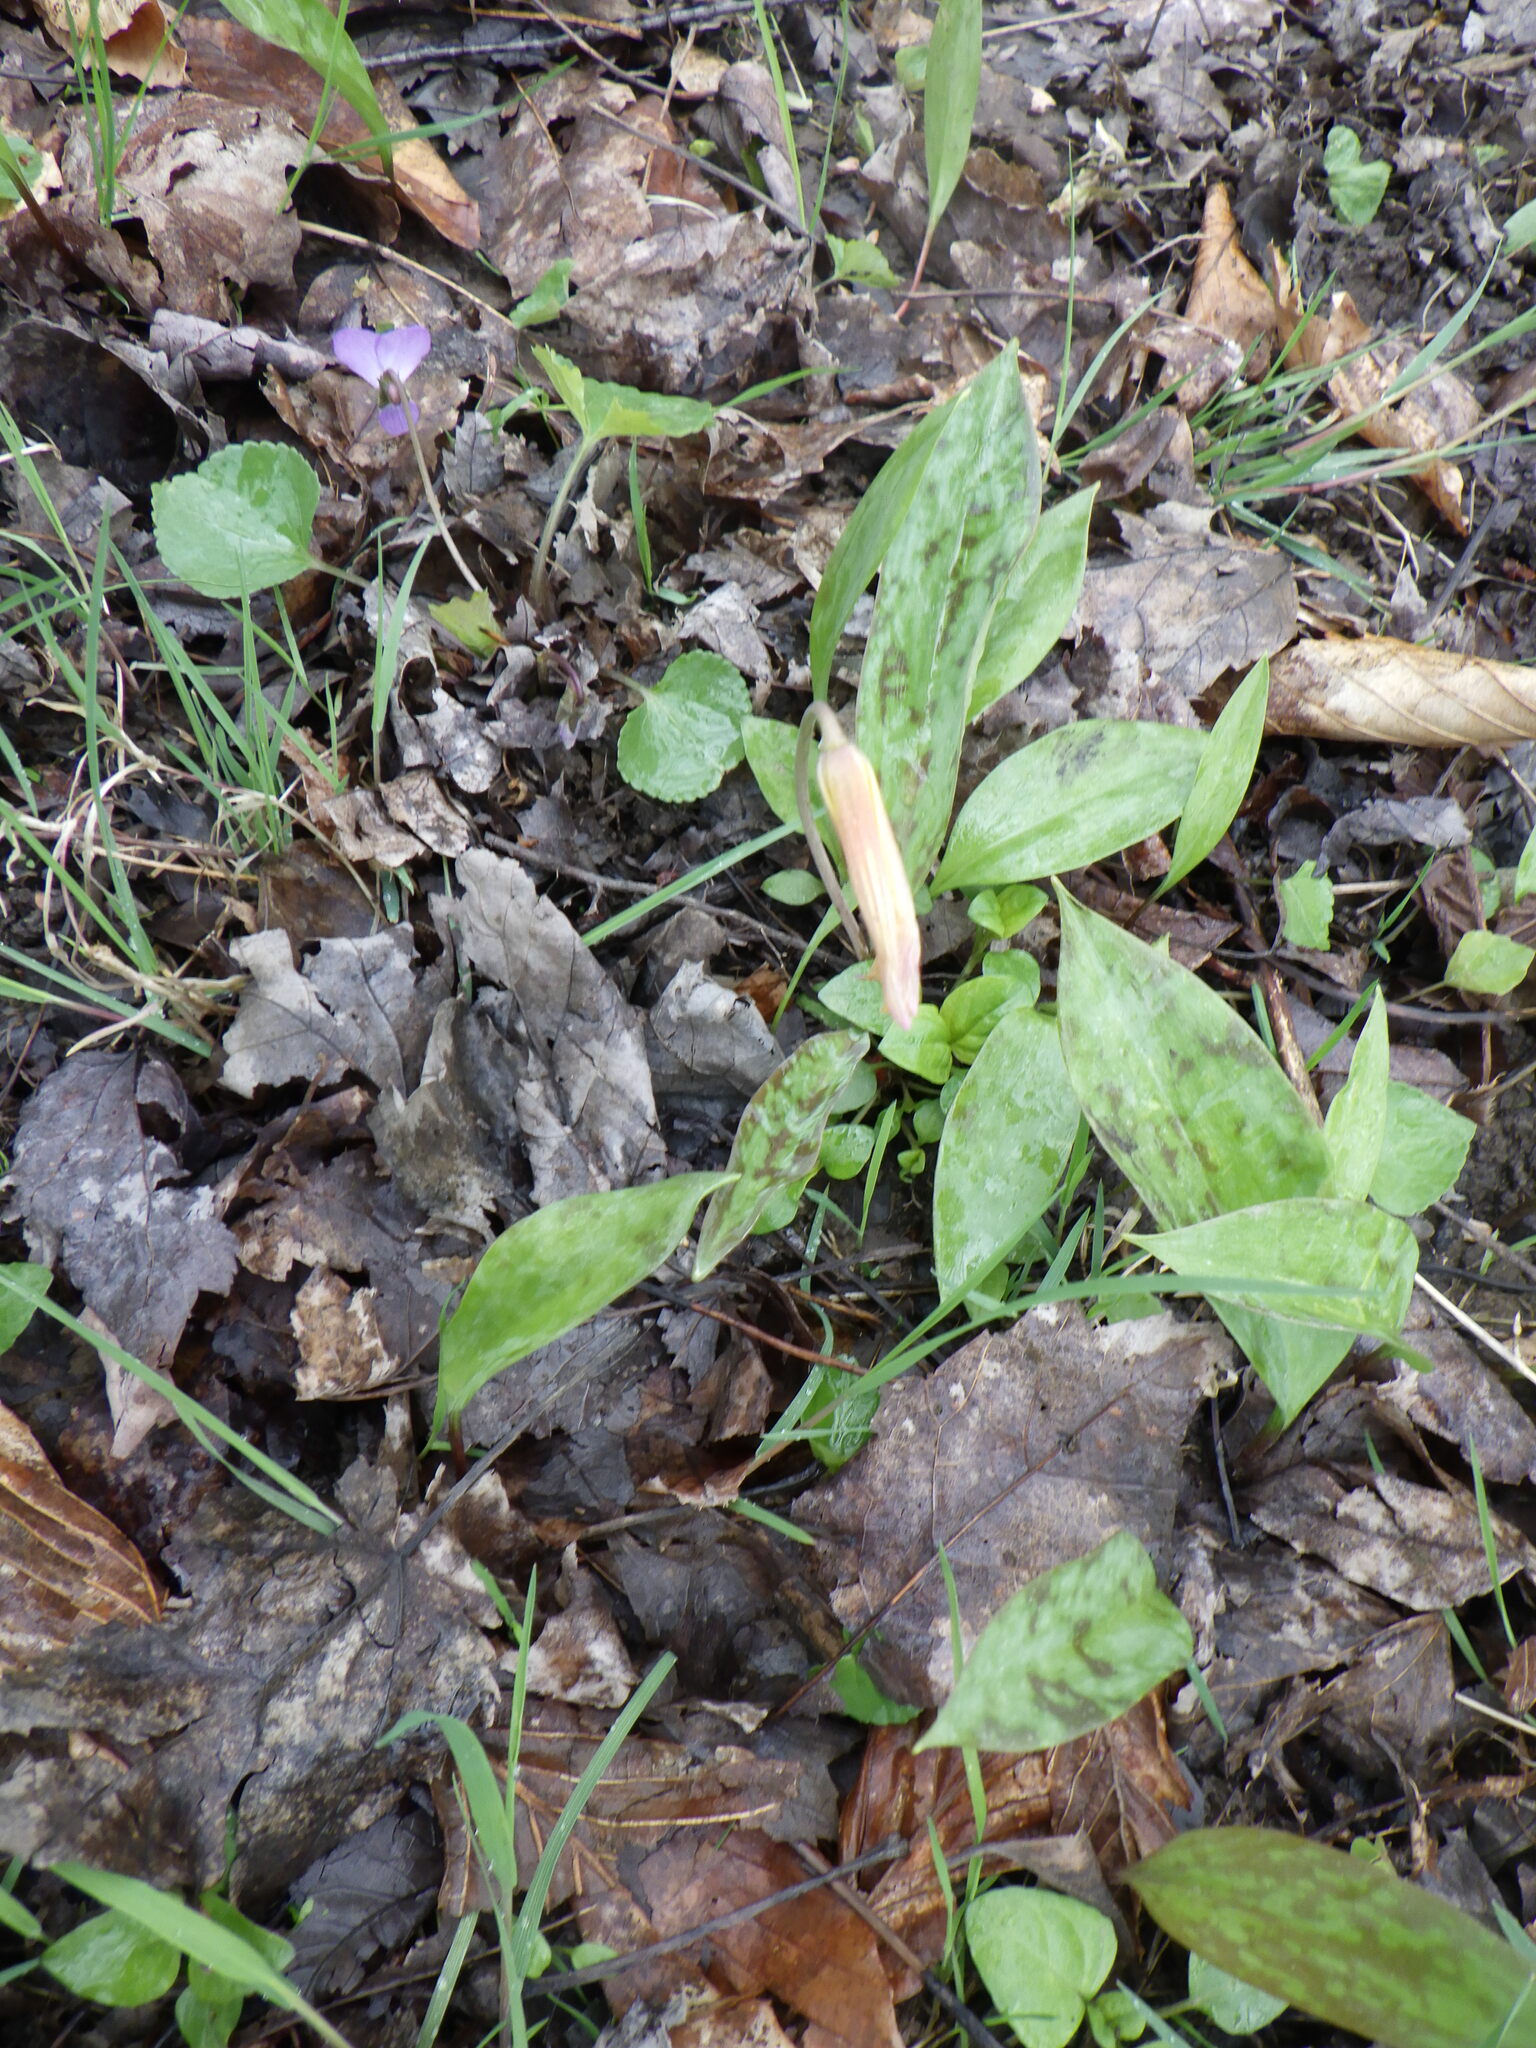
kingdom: Plantae
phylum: Tracheophyta
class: Liliopsida
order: Liliales
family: Liliaceae
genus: Erythronium
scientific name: Erythronium americanum
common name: Yellow adder's-tongue
